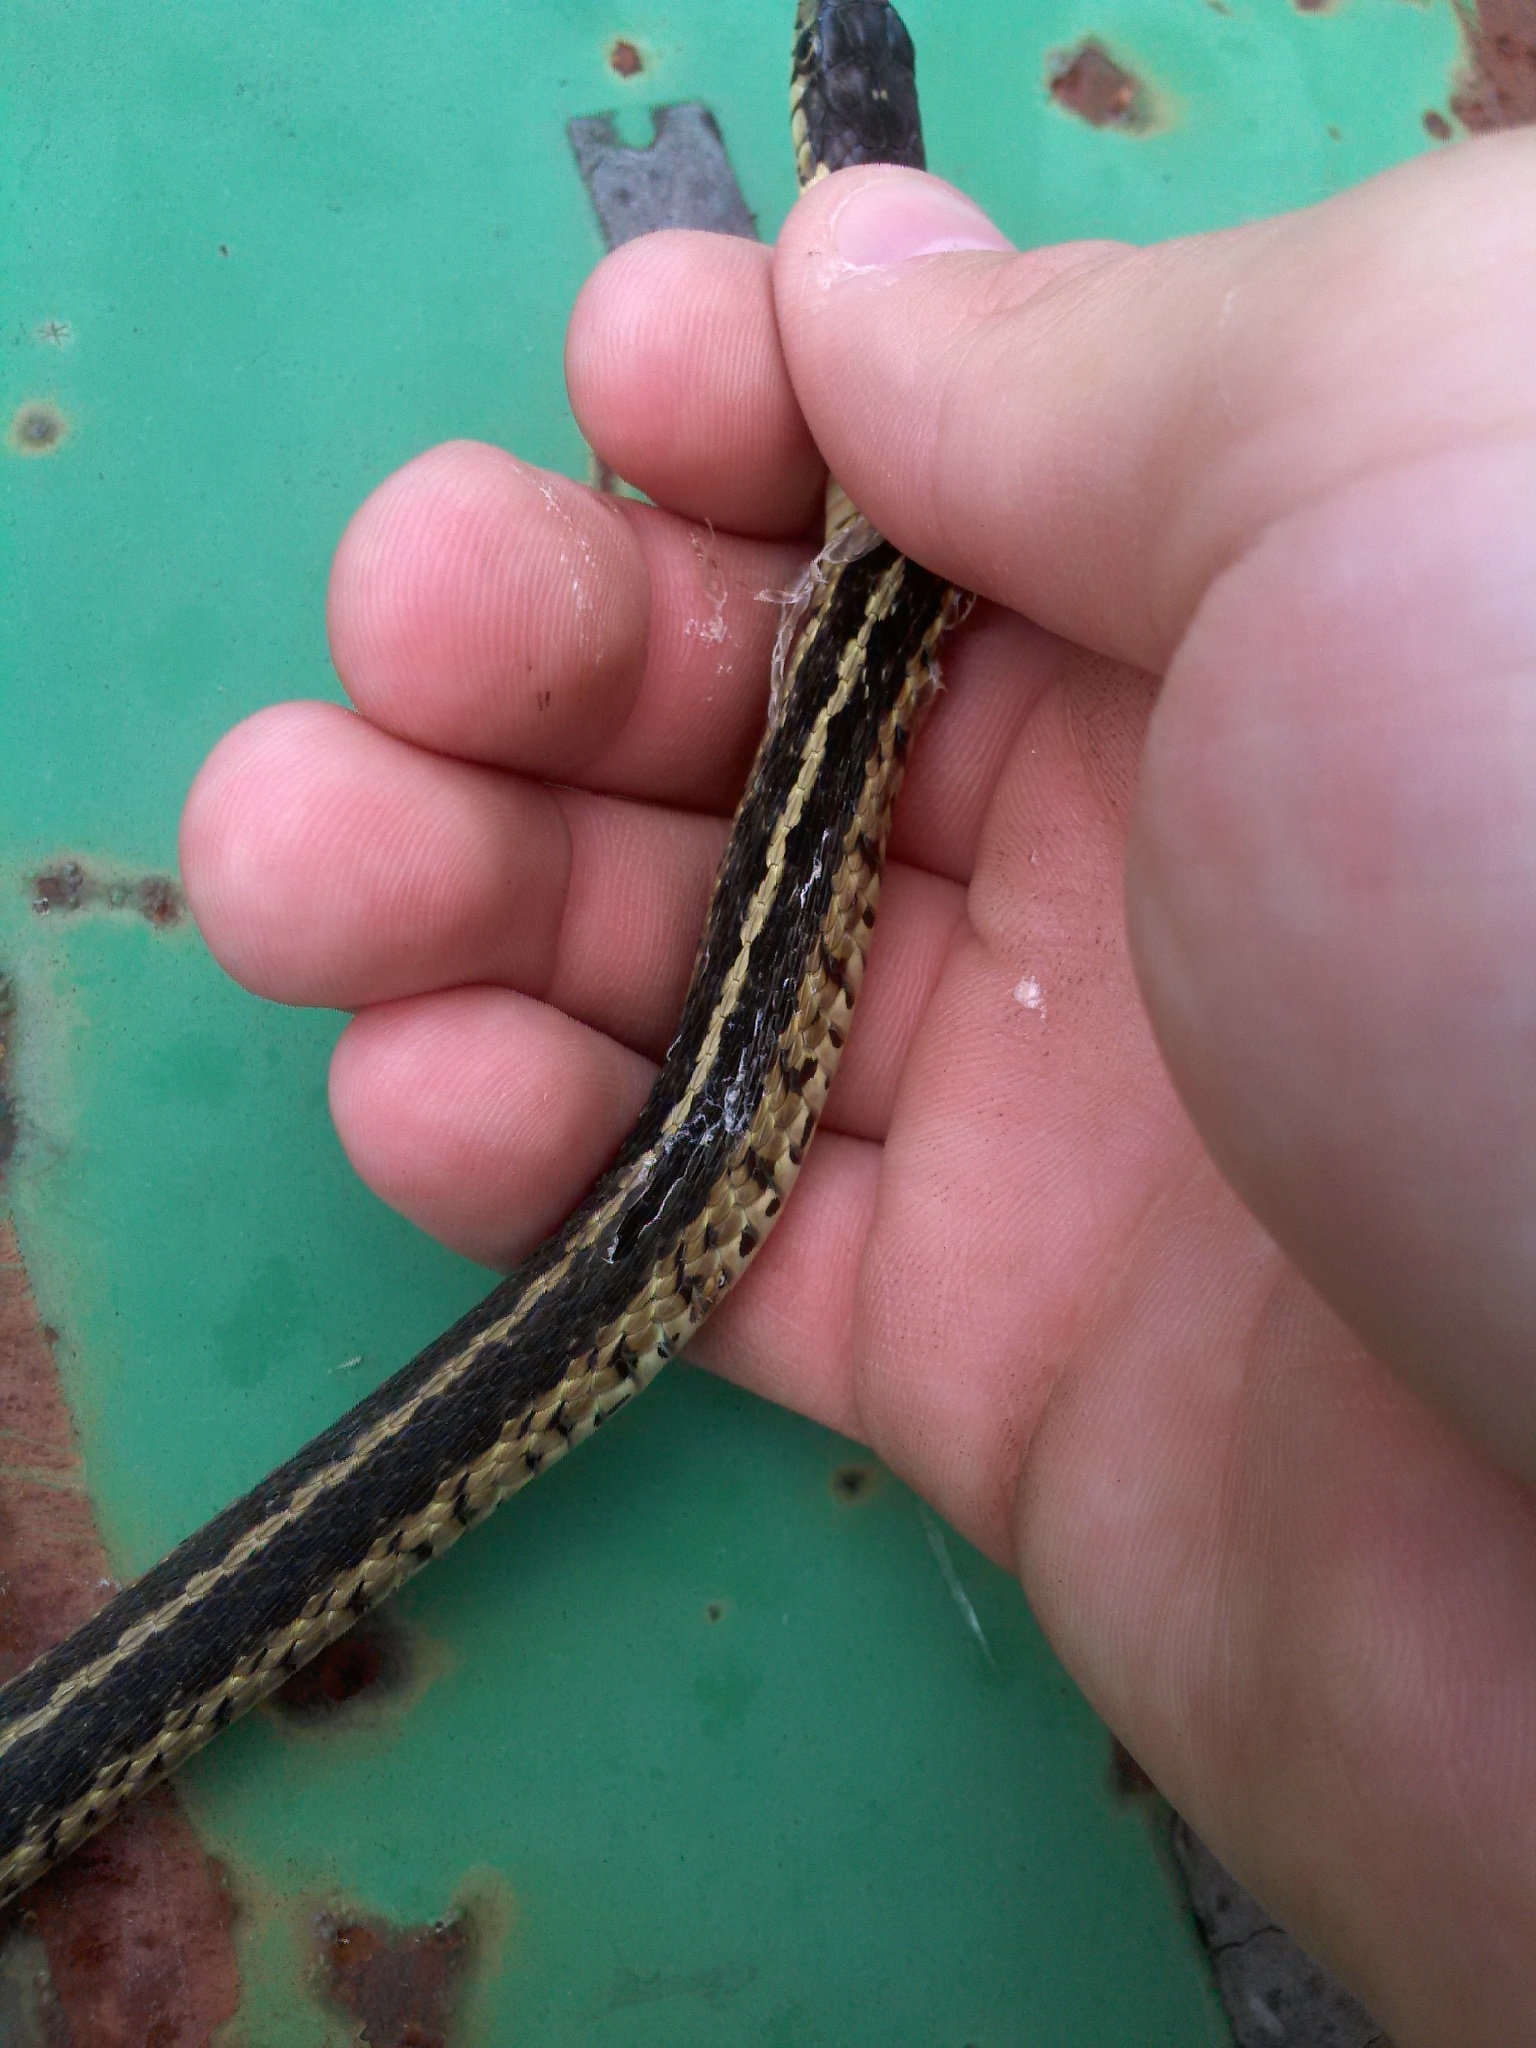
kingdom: Animalia
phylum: Chordata
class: Squamata
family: Colubridae
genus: Thamnophis
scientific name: Thamnophis sirtalis
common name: Common garter snake
